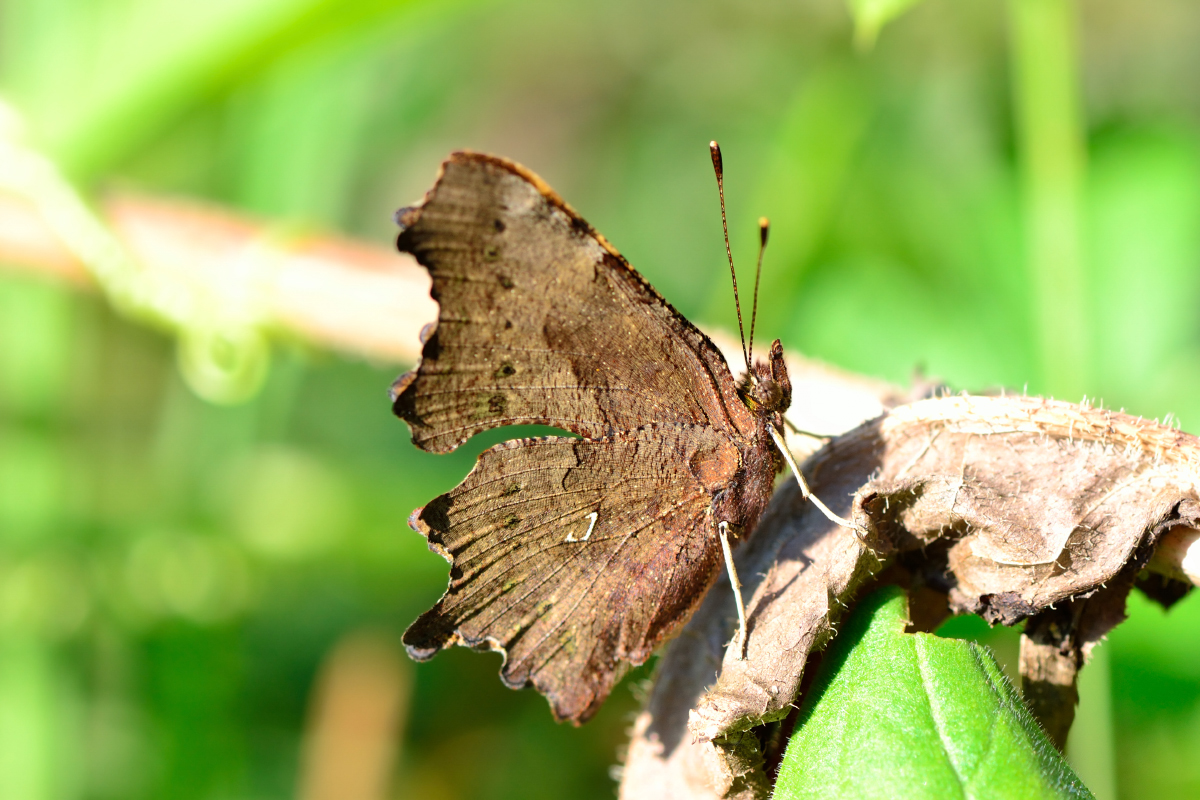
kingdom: Animalia
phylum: Arthropoda
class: Insecta
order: Lepidoptera
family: Nymphalidae
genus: Polygonia
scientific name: Polygonia c-album
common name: Comma
